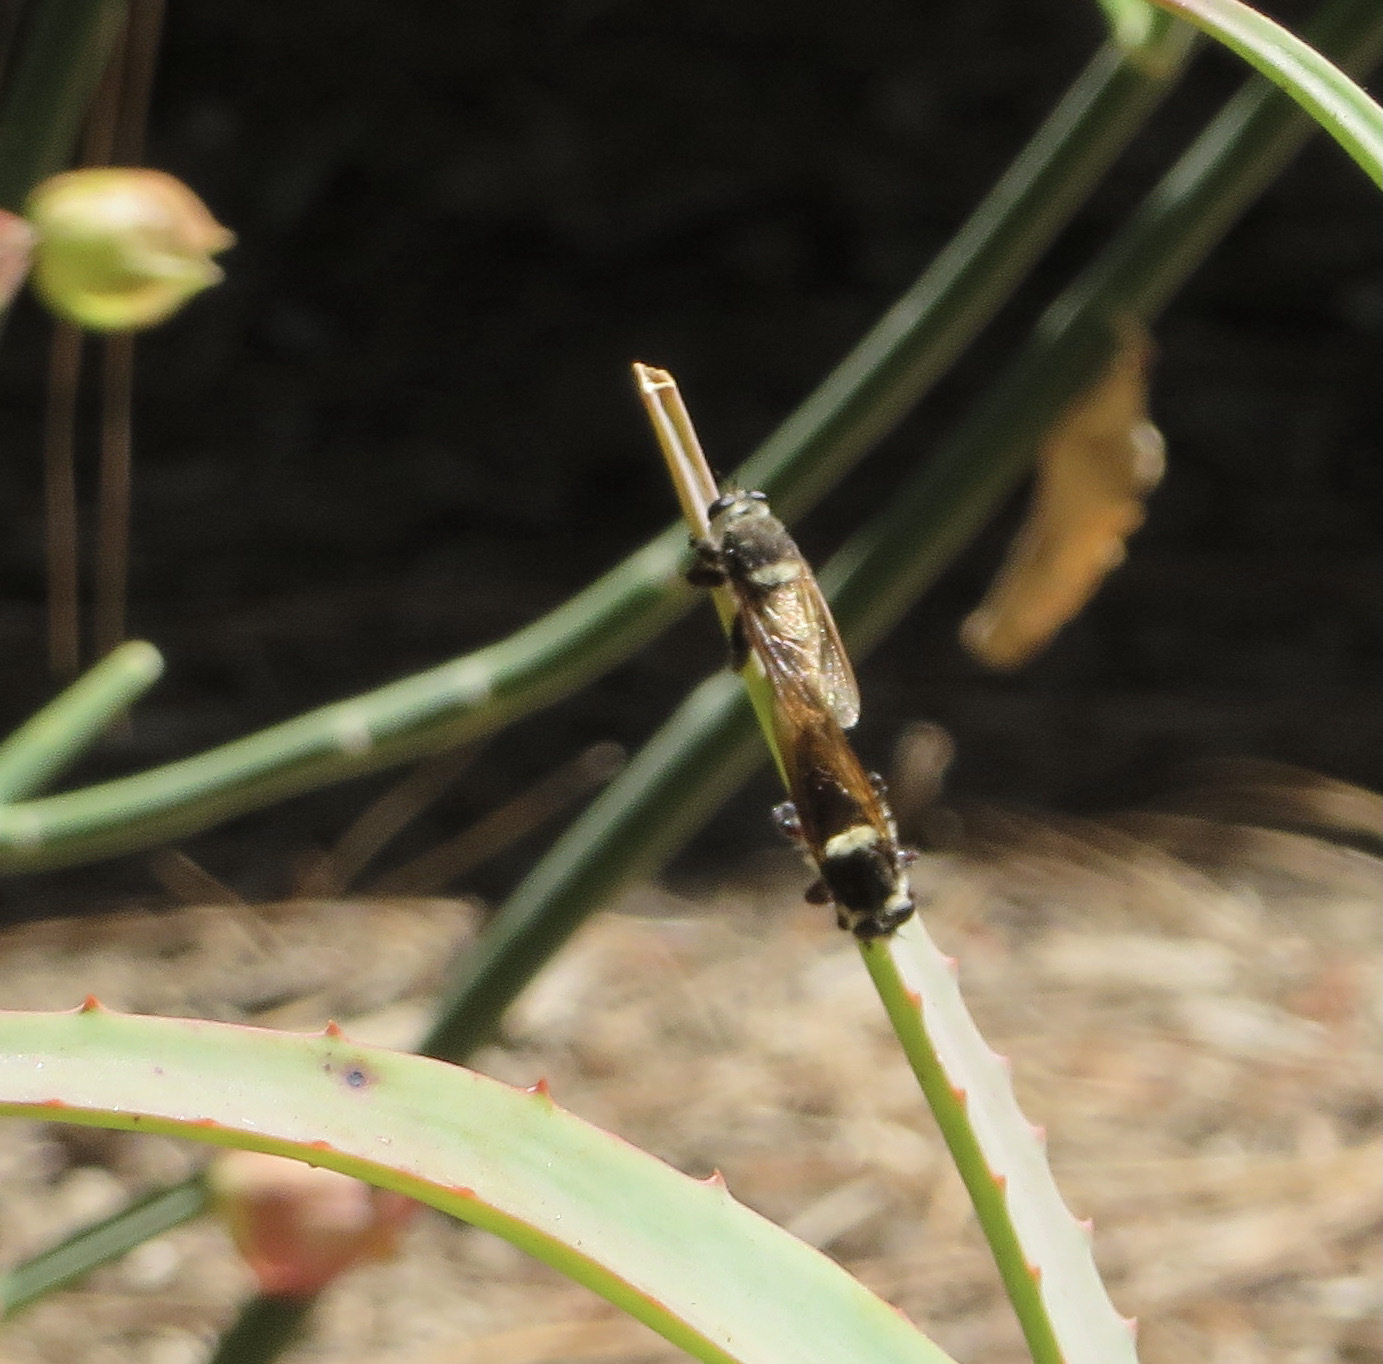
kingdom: Animalia
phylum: Arthropoda
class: Insecta
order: Diptera
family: Asilidae
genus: Mallophora
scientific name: Mallophora fautrix
